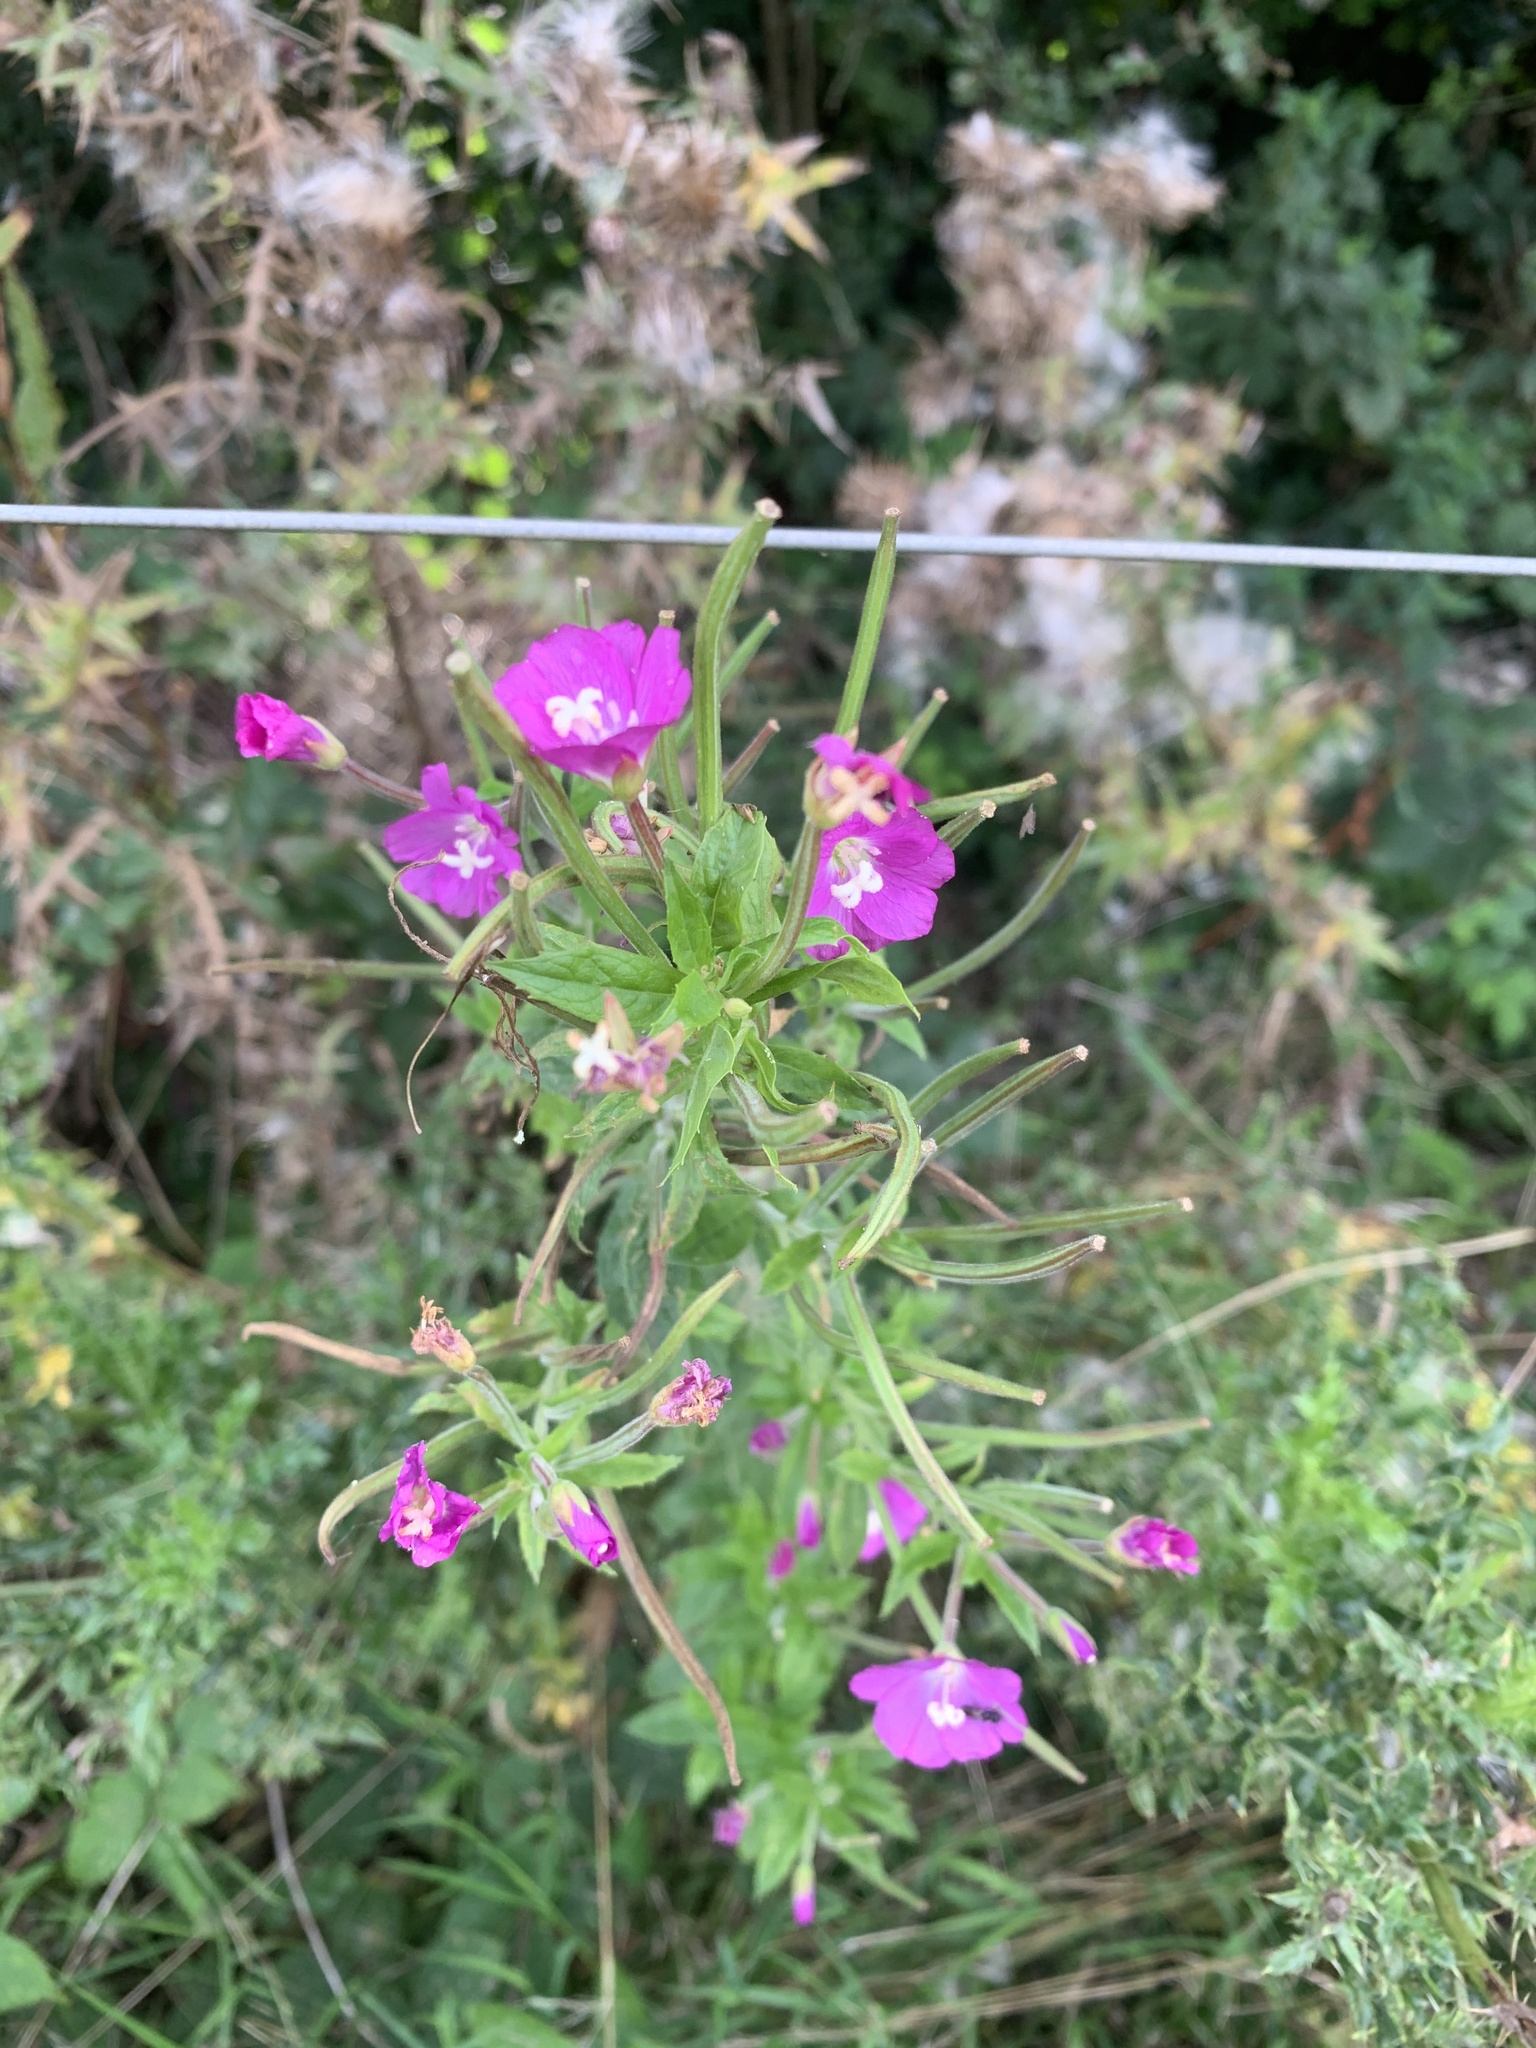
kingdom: Plantae
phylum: Tracheophyta
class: Magnoliopsida
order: Myrtales
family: Onagraceae
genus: Epilobium
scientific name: Epilobium hirsutum
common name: Great willowherb
